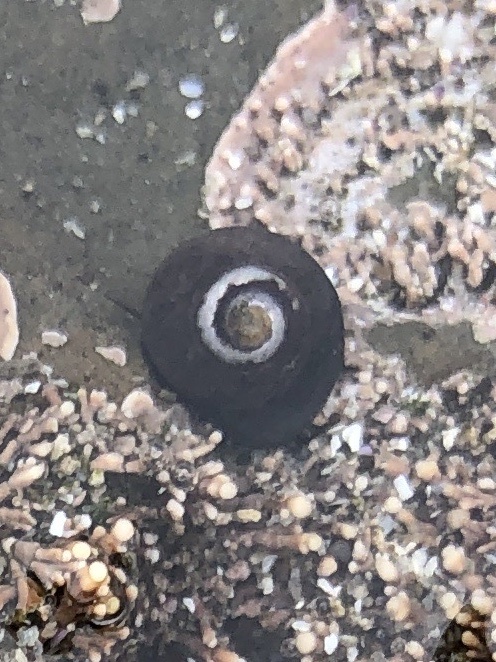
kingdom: Animalia
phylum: Mollusca
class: Gastropoda
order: Trochida
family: Tegulidae
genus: Tegula
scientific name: Tegula funebralis
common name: Black tegula
